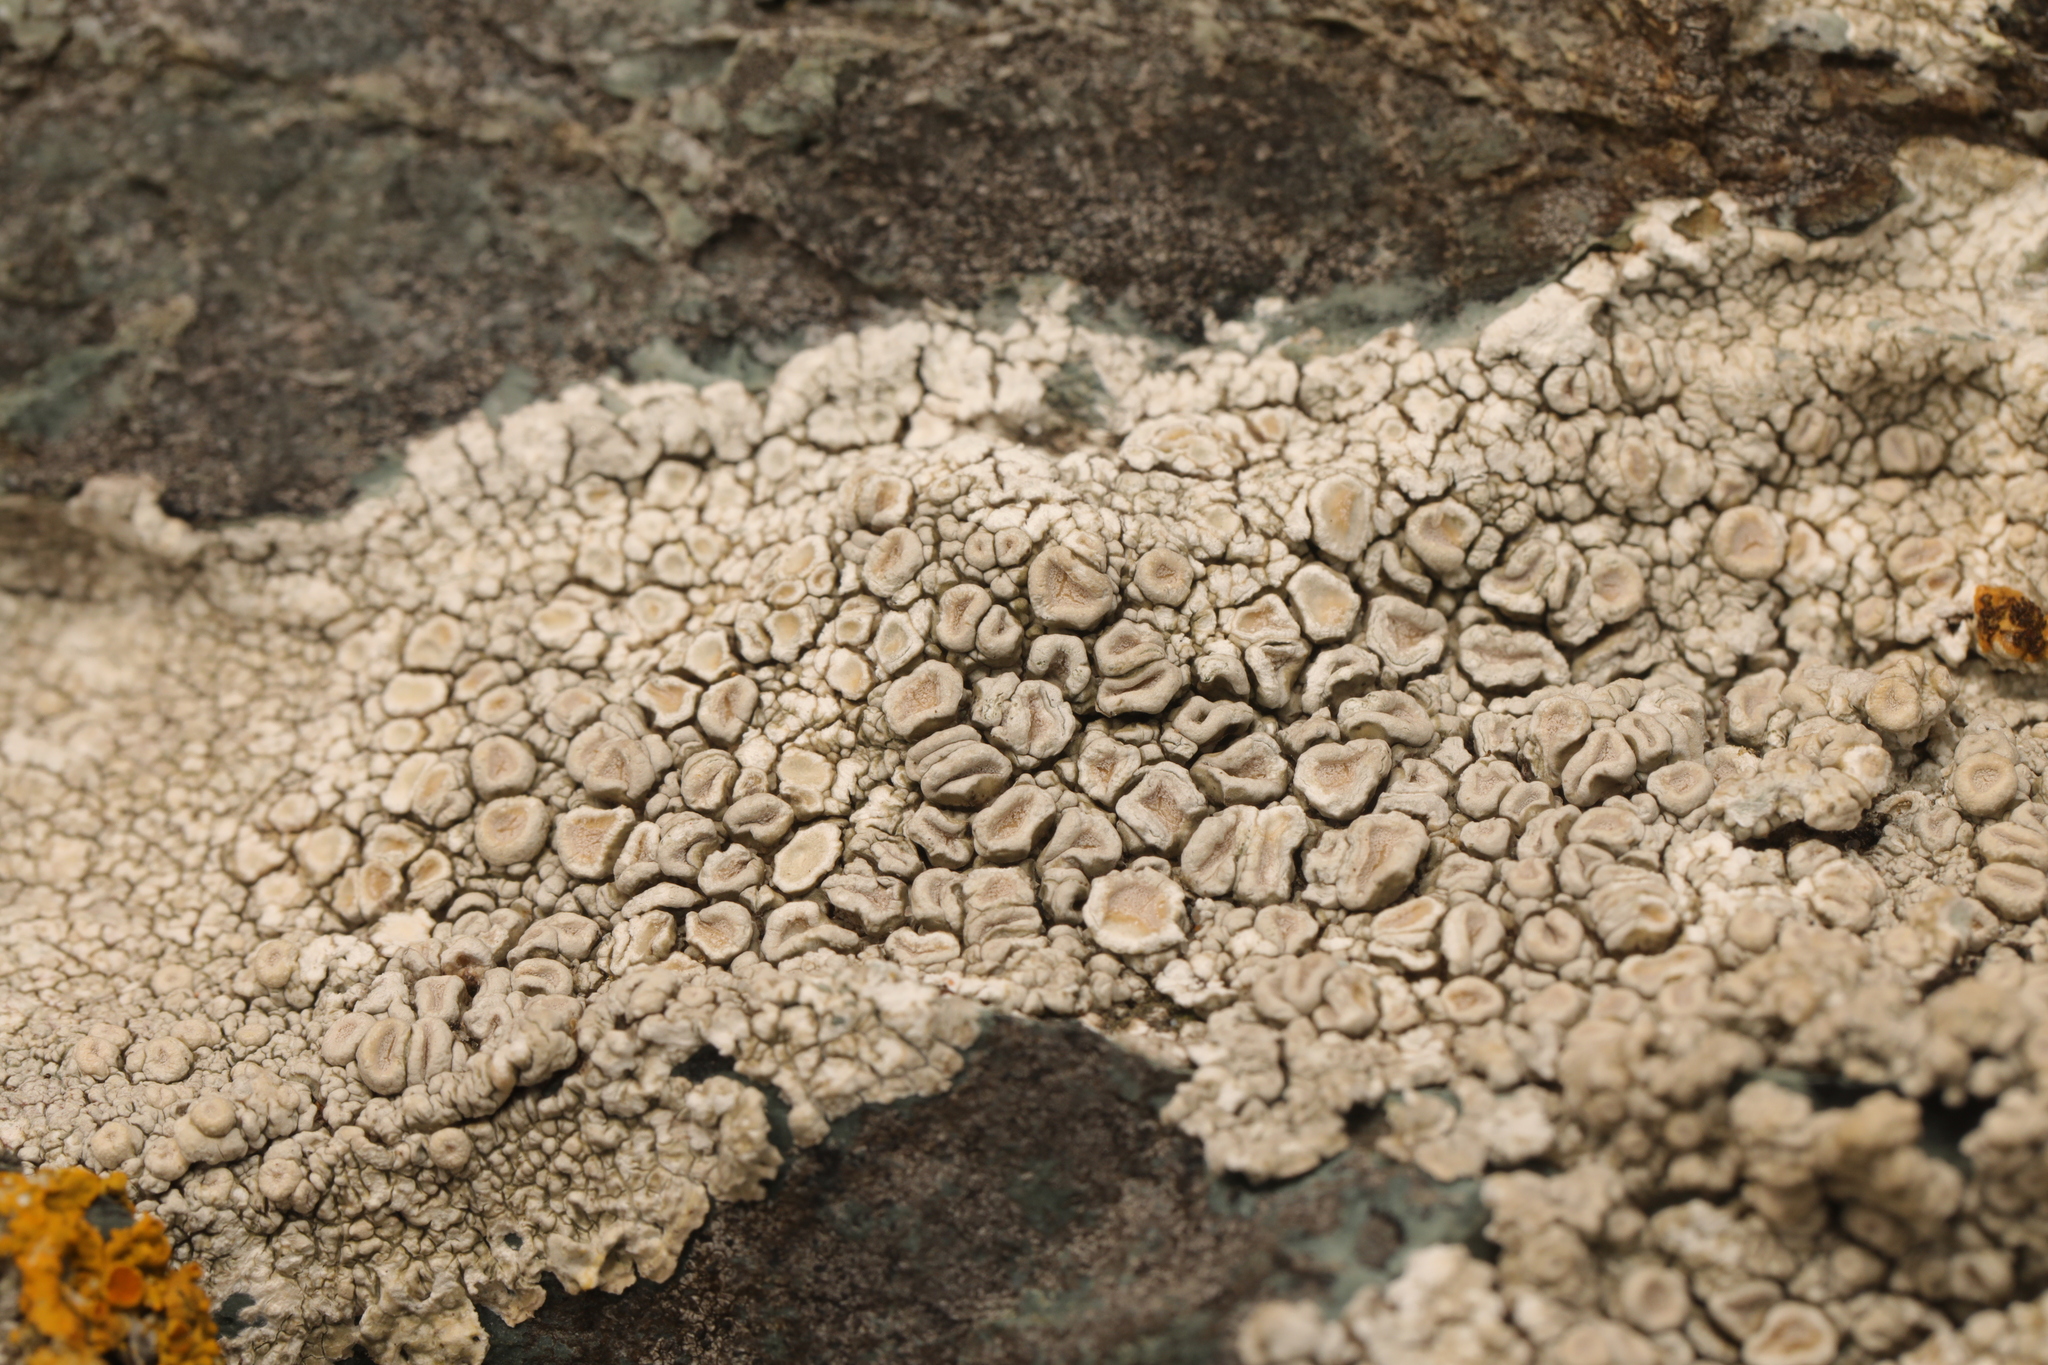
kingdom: Fungi
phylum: Ascomycota
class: Lecanoromycetes
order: Pertusariales
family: Ochrolechiaceae
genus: Ochrolechia
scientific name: Ochrolechia parella
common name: Crab's eye lichen
